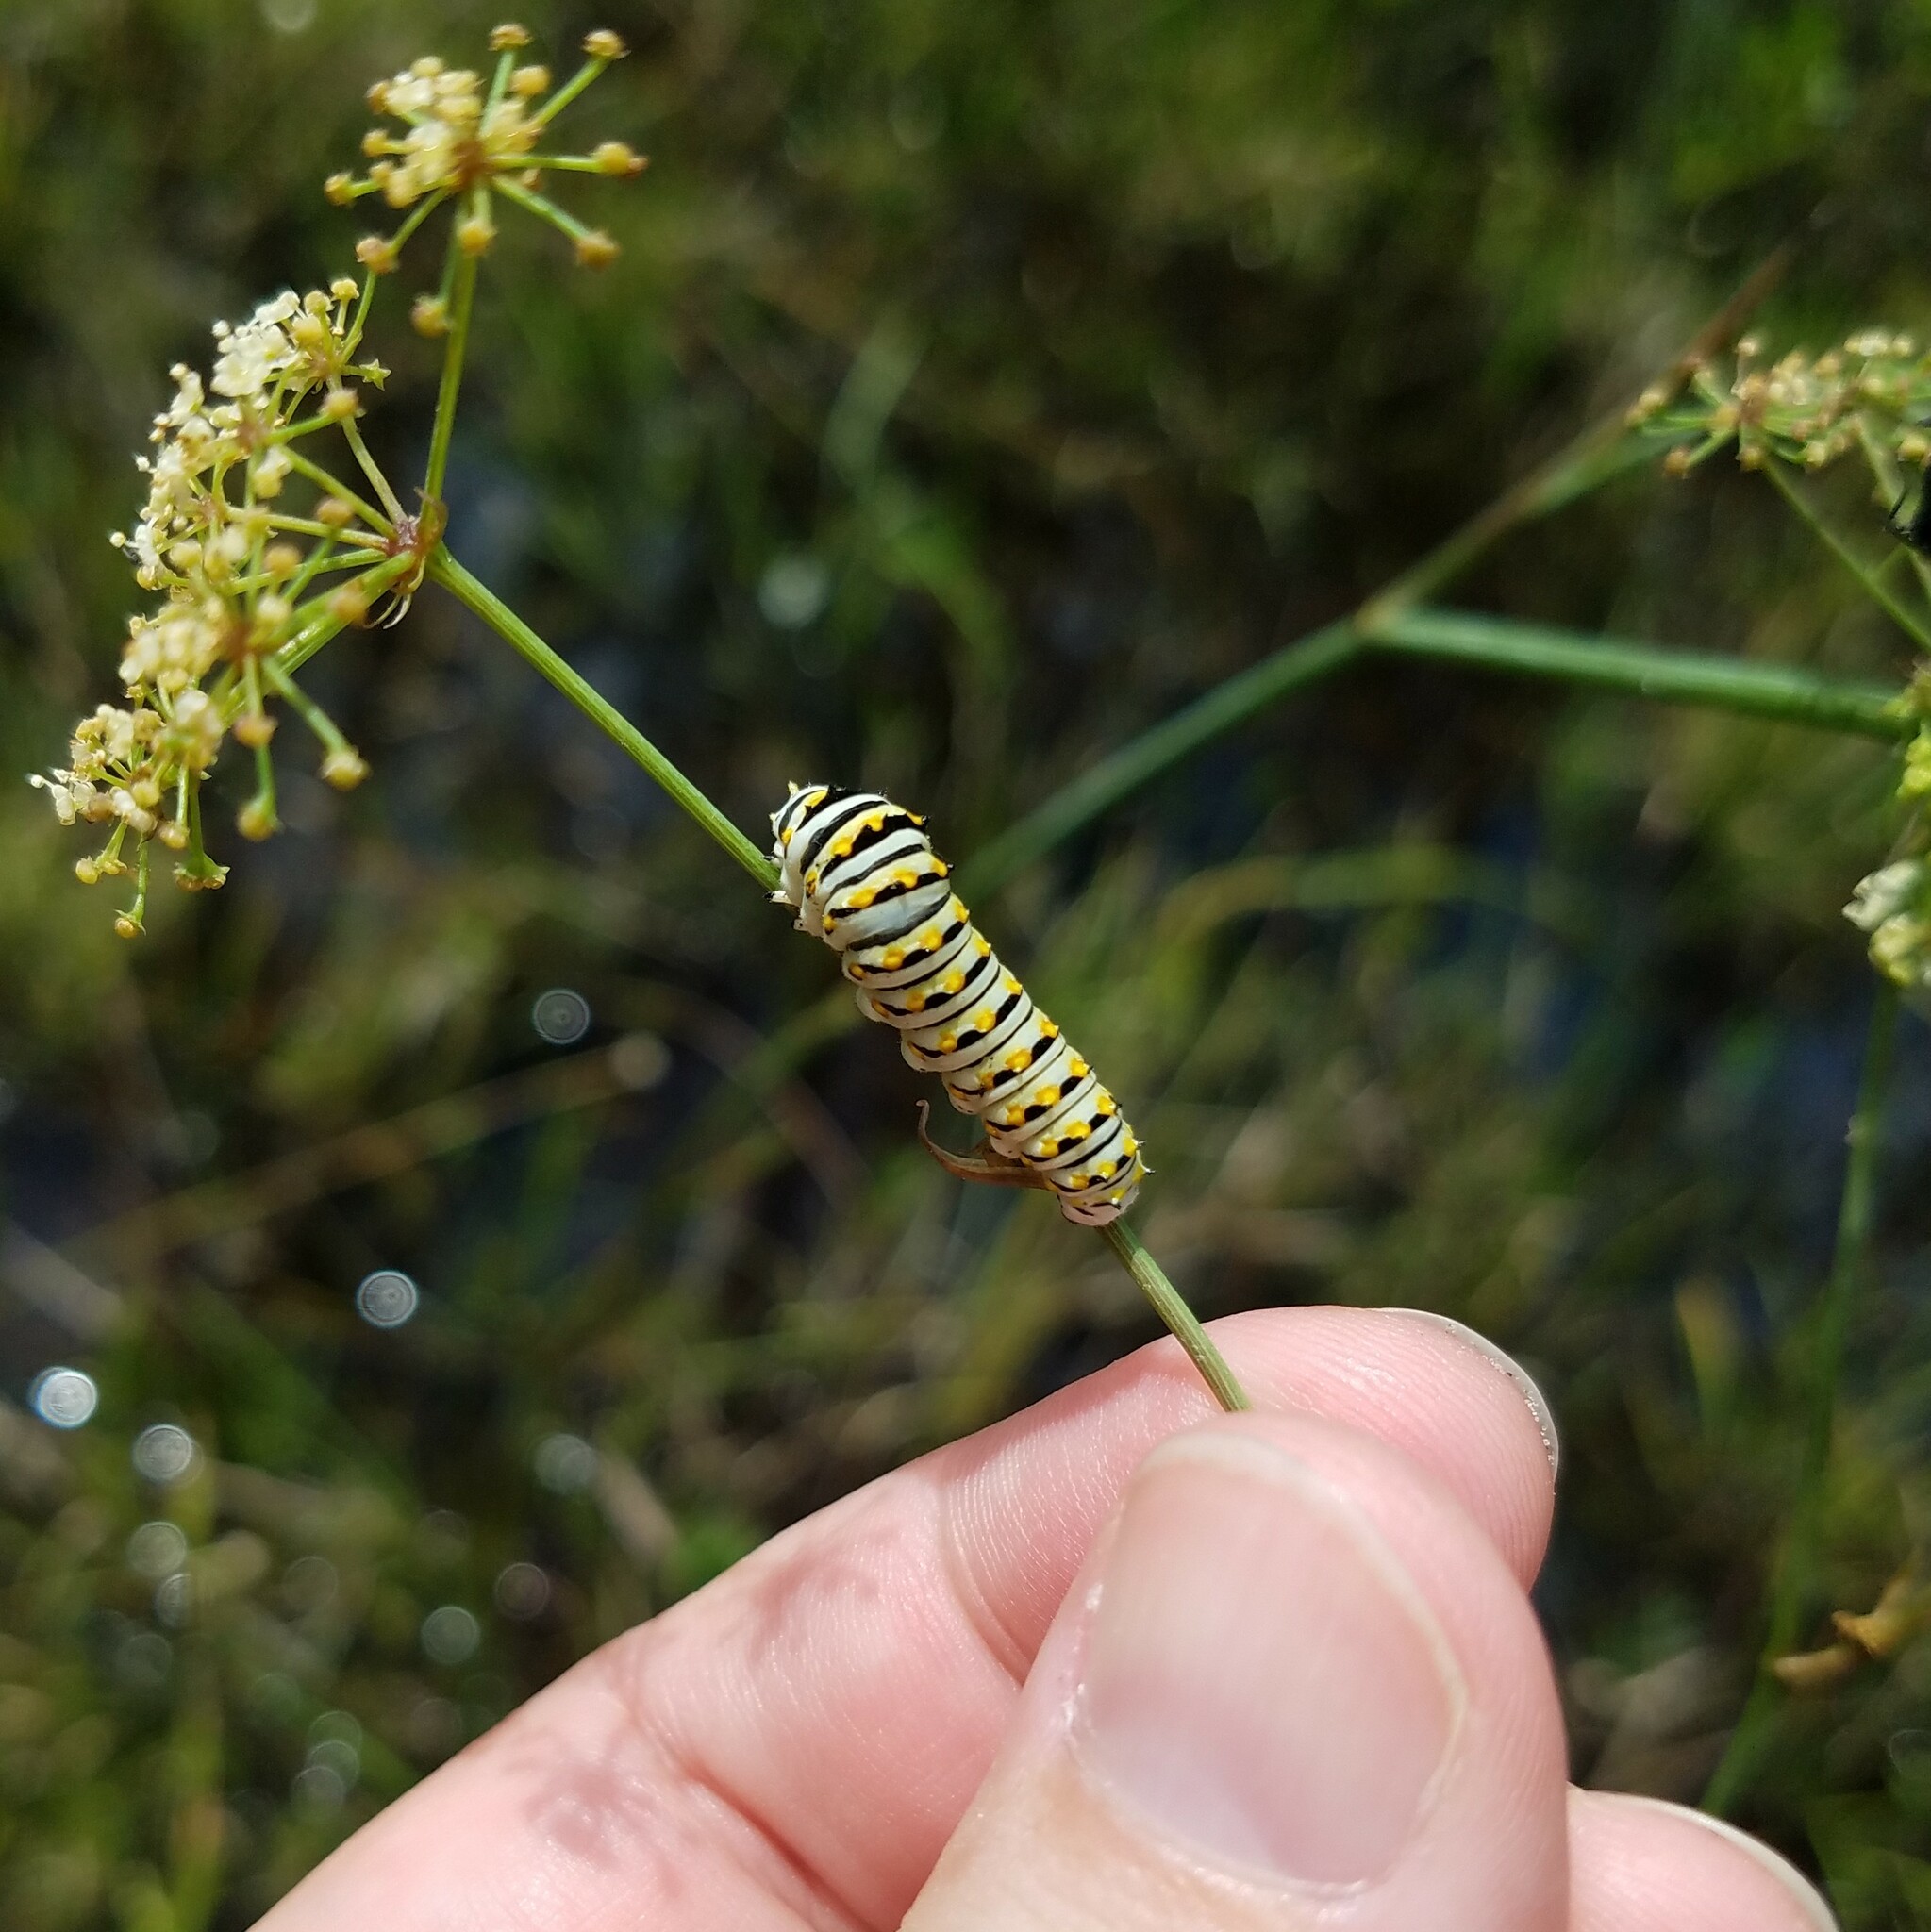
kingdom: Animalia
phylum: Arthropoda
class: Insecta
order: Lepidoptera
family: Papilionidae
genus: Papilio
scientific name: Papilio polyxenes
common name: Black swallowtail
